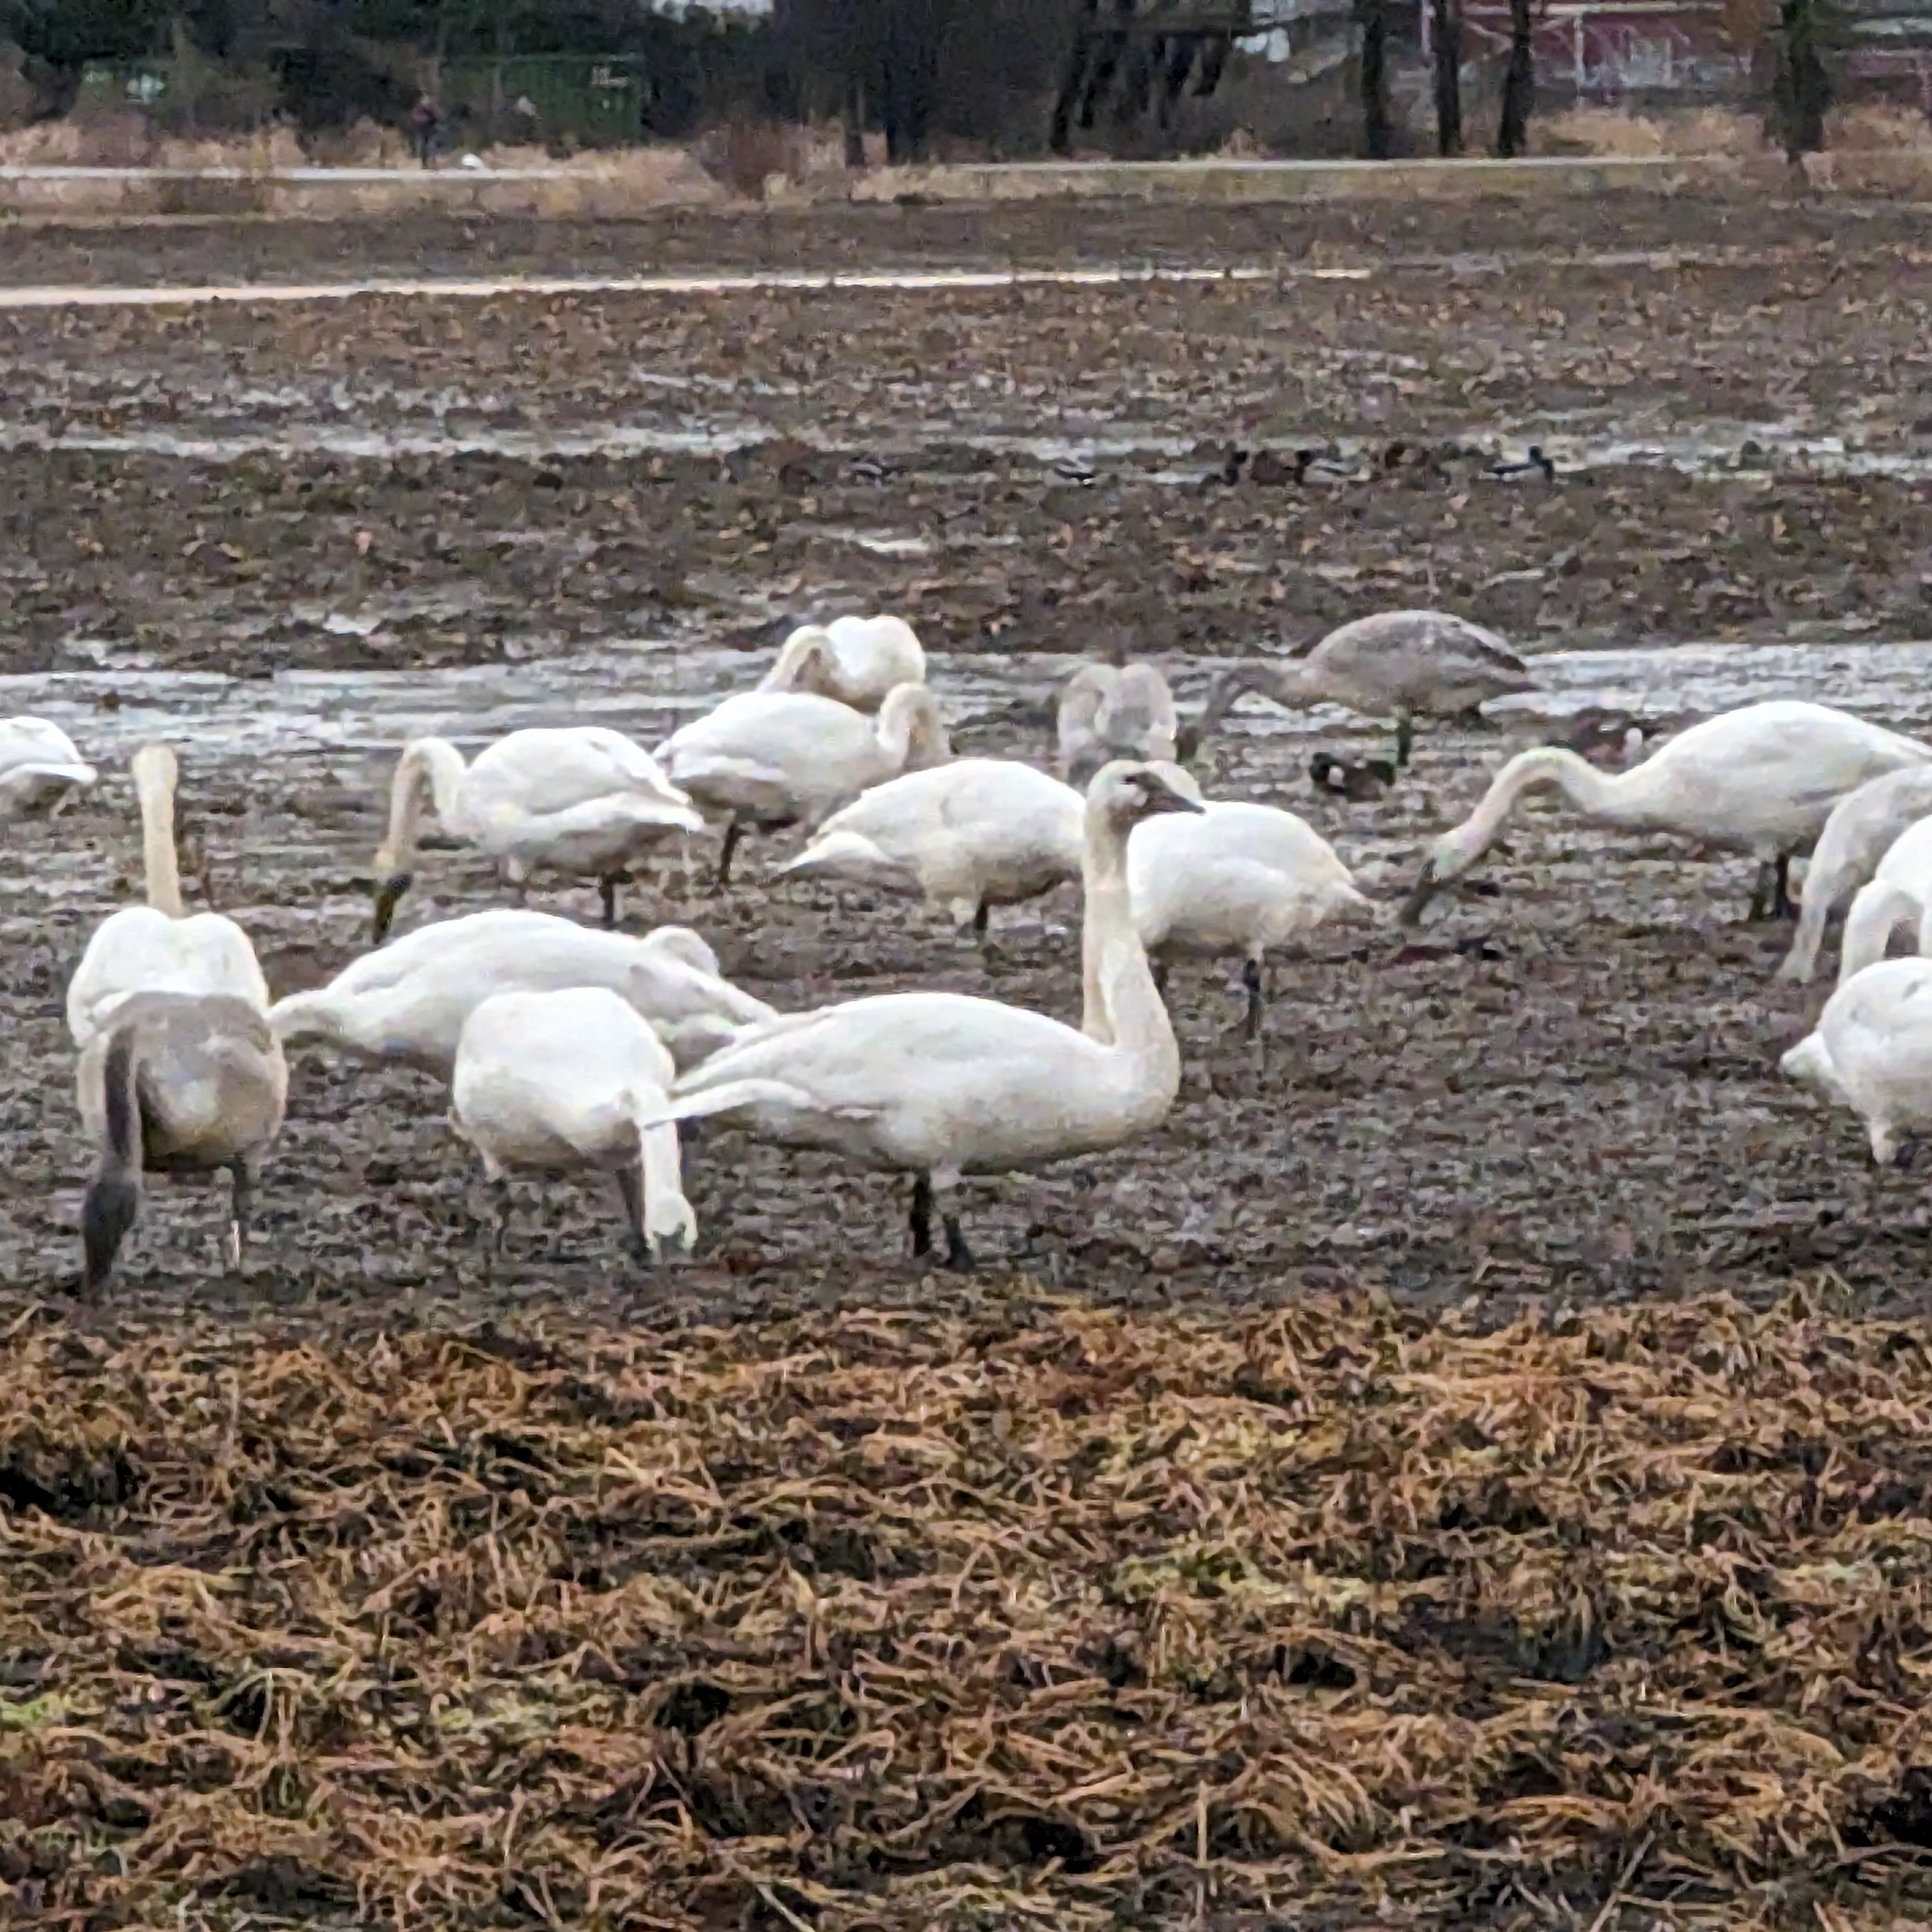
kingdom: Animalia
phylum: Chordata
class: Aves
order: Anseriformes
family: Anatidae
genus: Cygnus
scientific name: Cygnus buccinator
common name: Trumpeter swan
